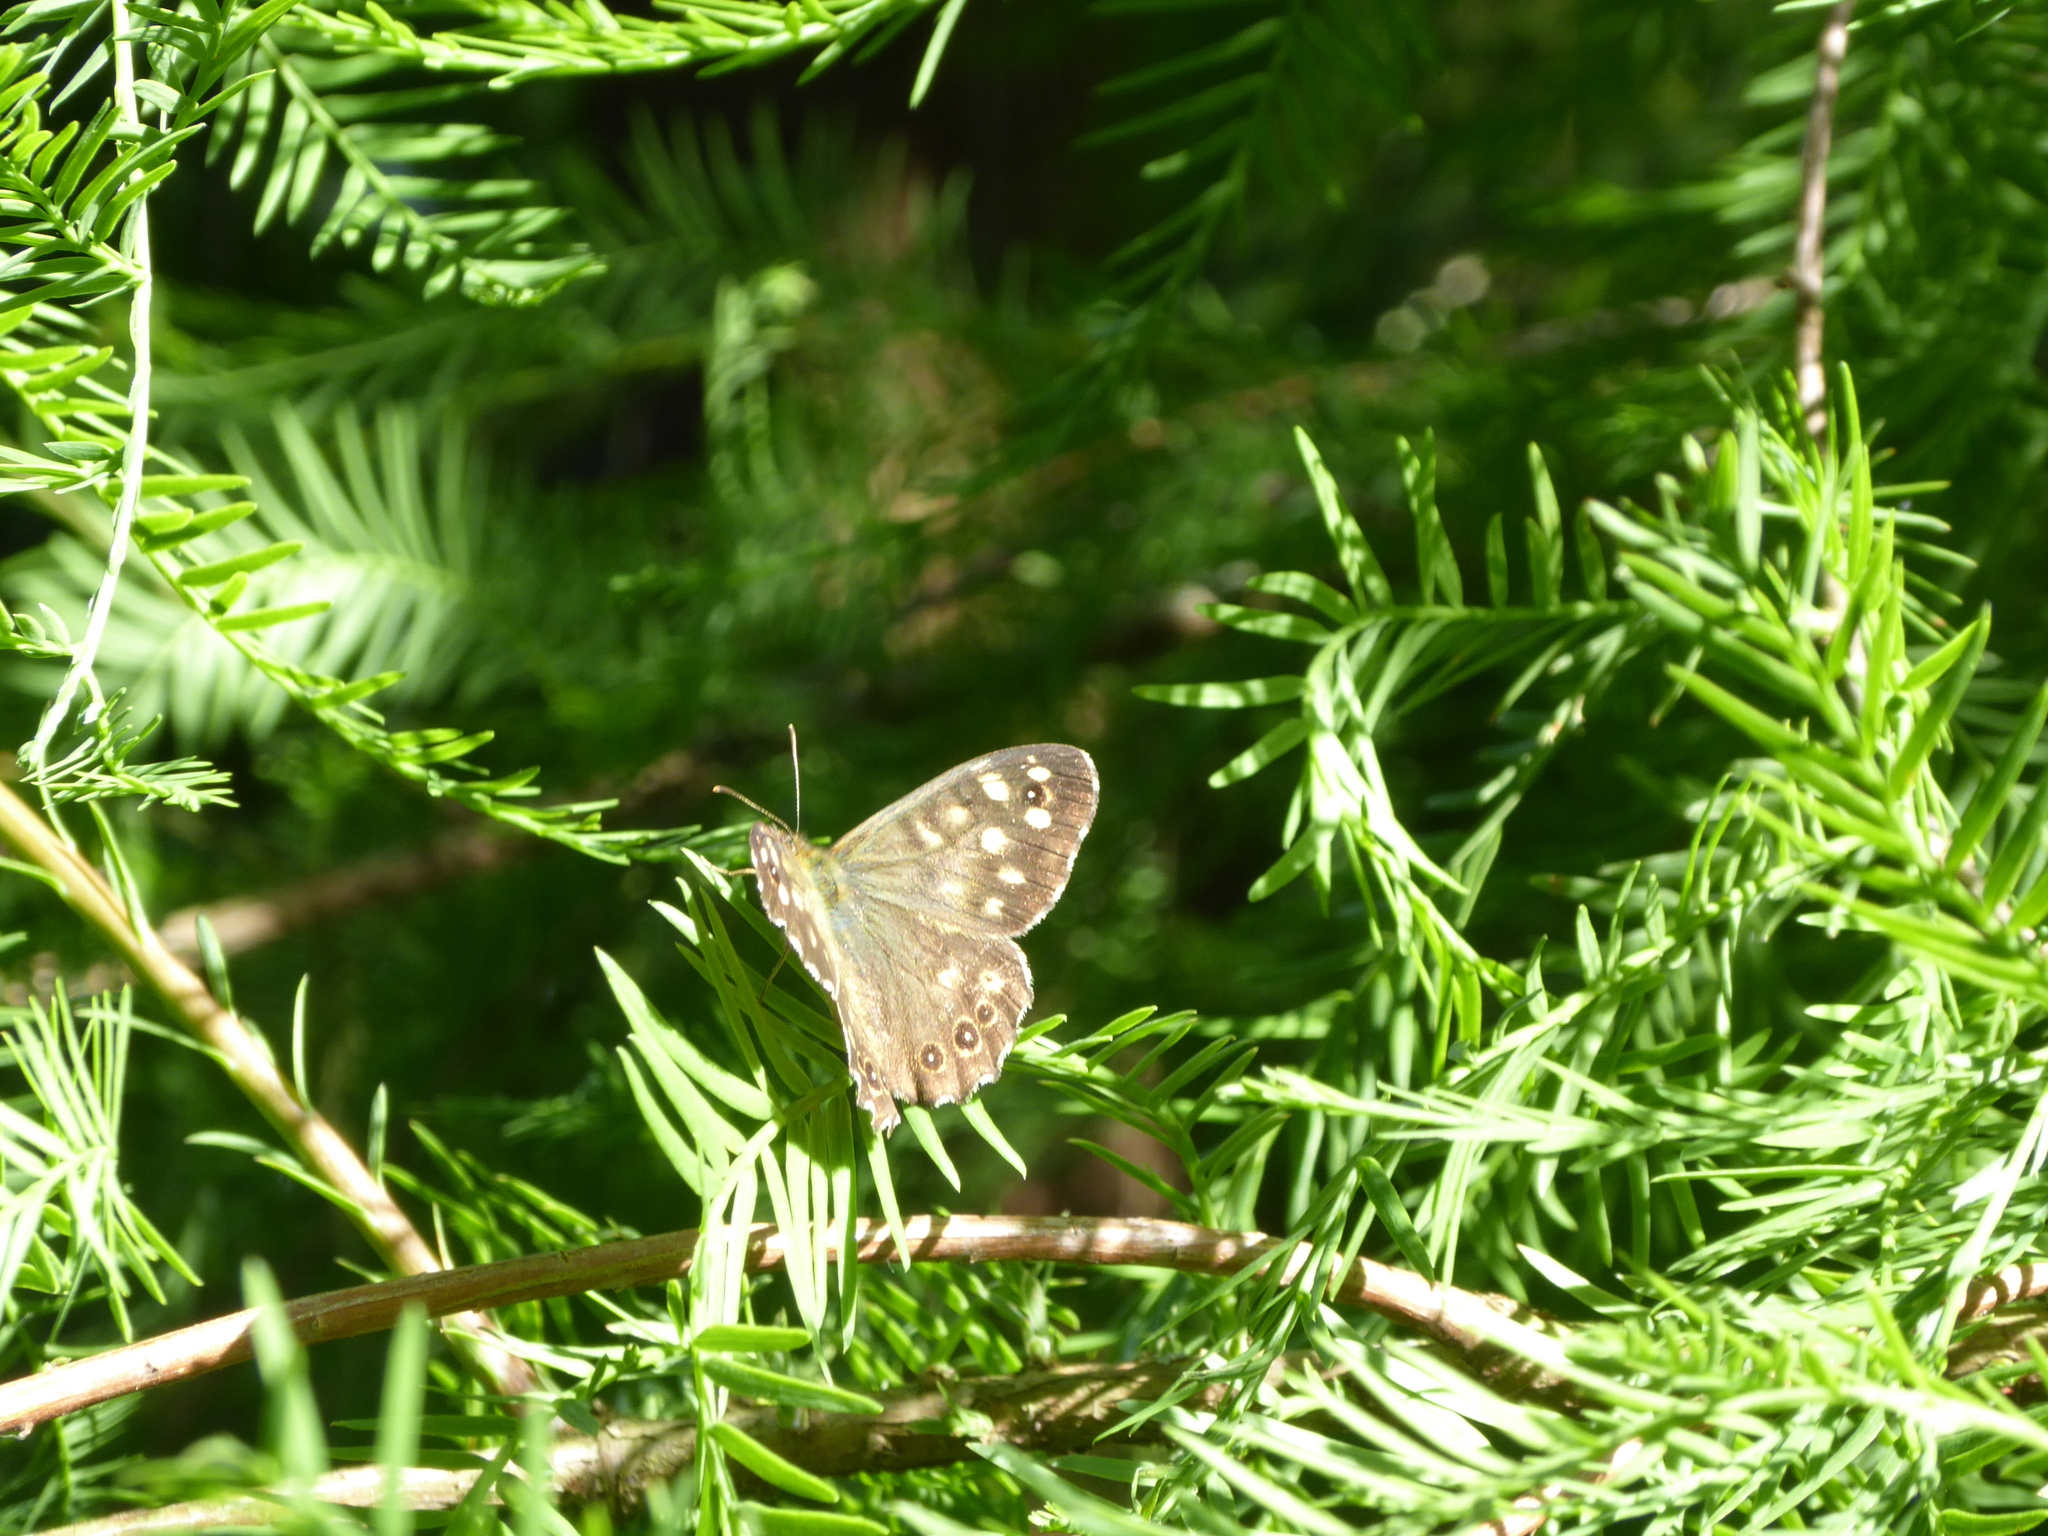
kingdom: Animalia
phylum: Arthropoda
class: Insecta
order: Lepidoptera
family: Nymphalidae
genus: Pararge
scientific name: Pararge aegeria
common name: Speckled wood
